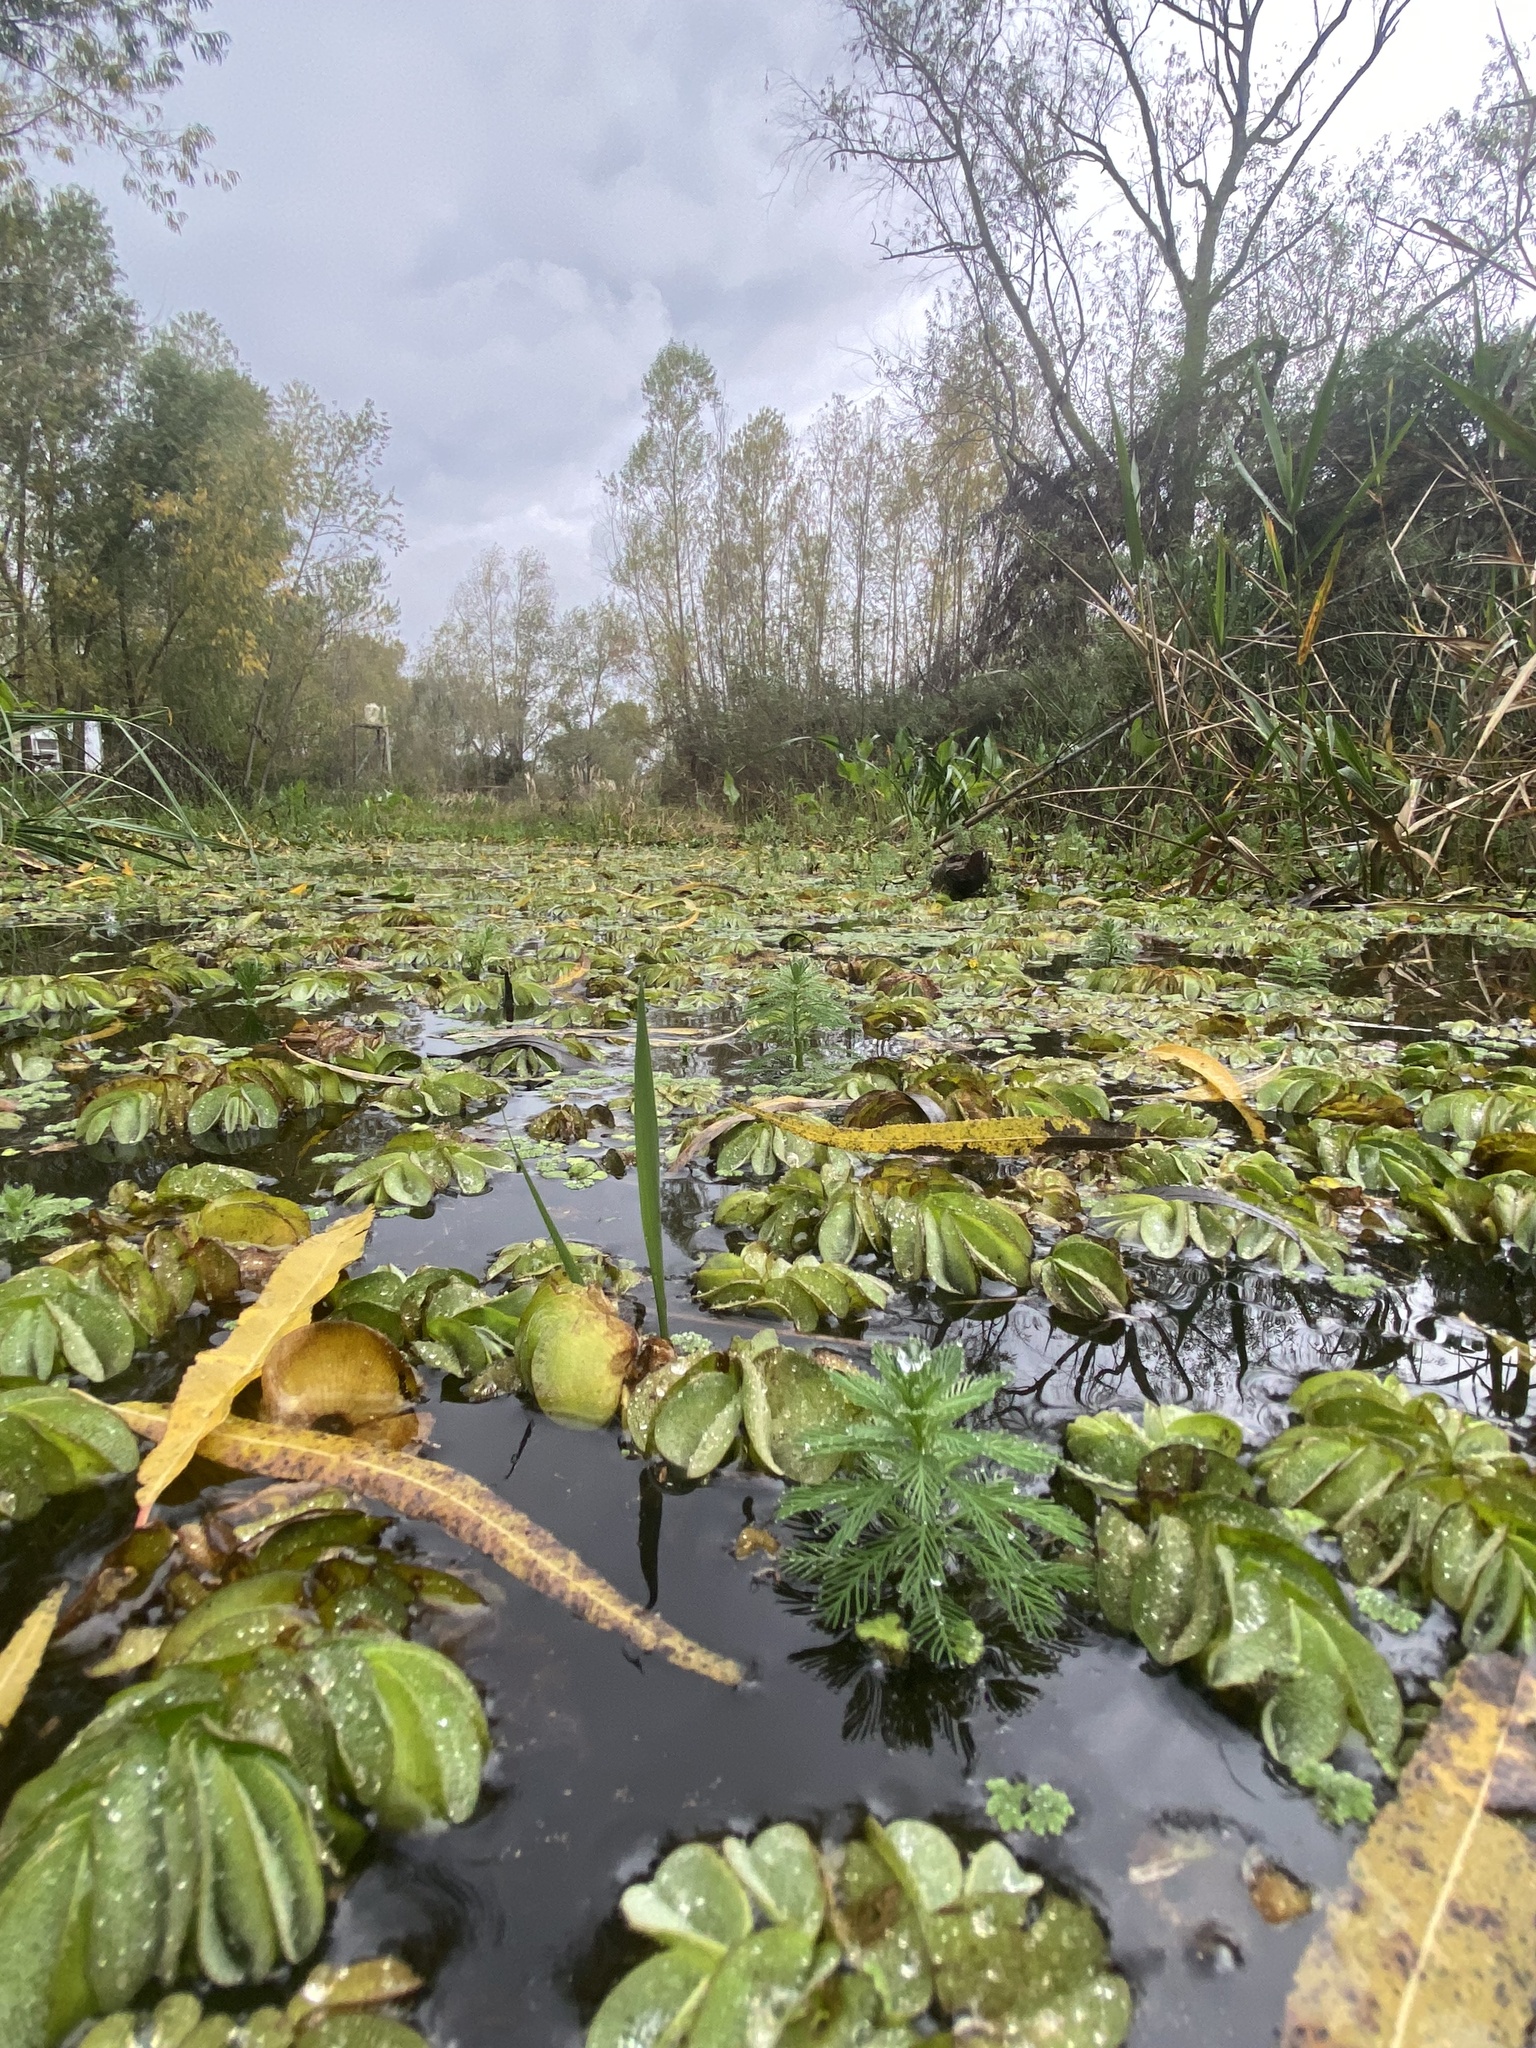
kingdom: Plantae
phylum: Tracheophyta
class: Magnoliopsida
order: Saxifragales
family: Haloragaceae
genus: Myriophyllum
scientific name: Myriophyllum aquaticum
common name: Parrot's feather
